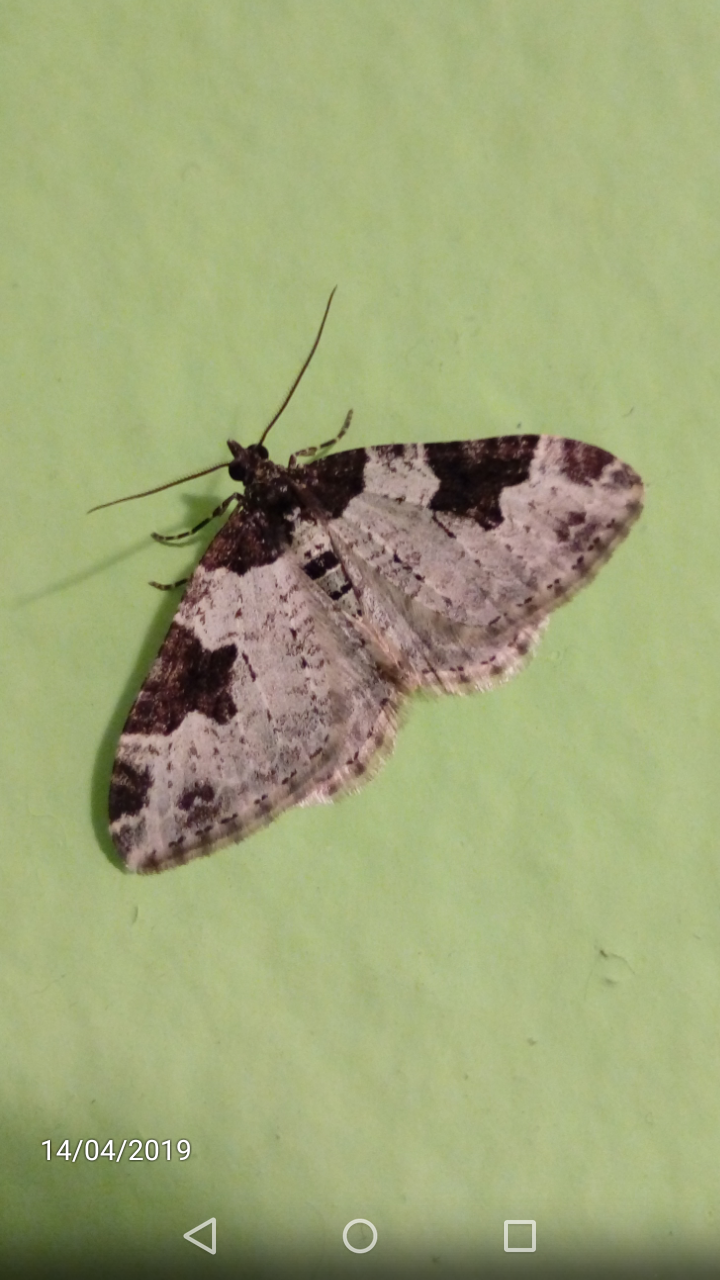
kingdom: Animalia
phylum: Arthropoda
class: Insecta
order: Lepidoptera
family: Geometridae
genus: Xanthorhoe
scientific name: Xanthorhoe fluctuata
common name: Garden carpet
